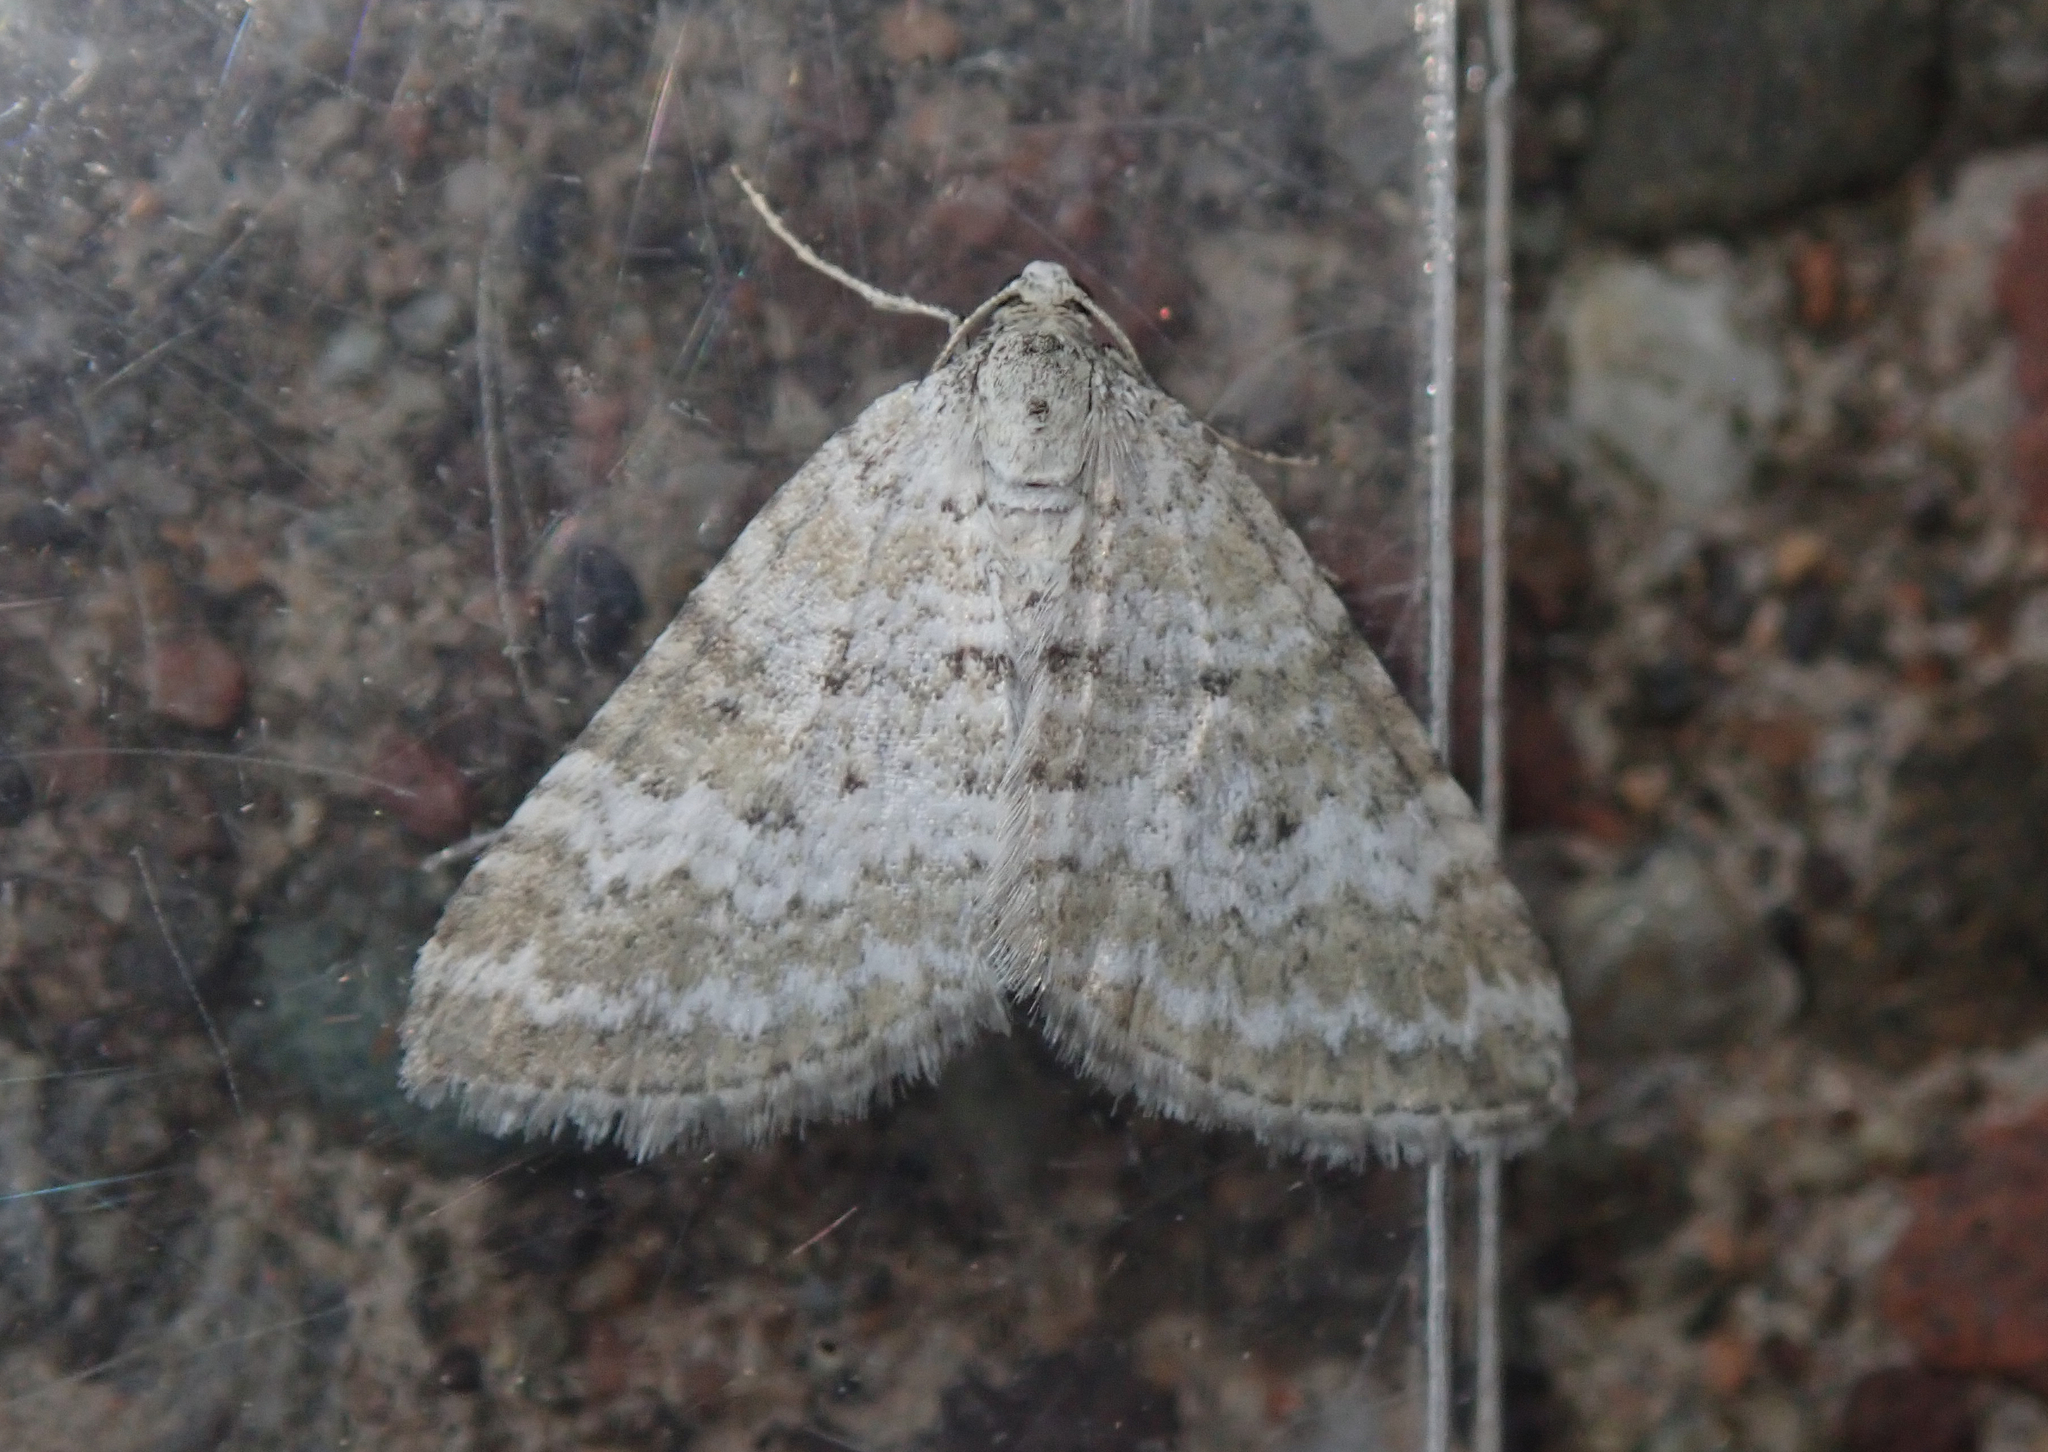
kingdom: Animalia
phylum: Arthropoda
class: Insecta
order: Lepidoptera
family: Geometridae
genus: Perizoma
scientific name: Perizoma albulata
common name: Grass rivulet
